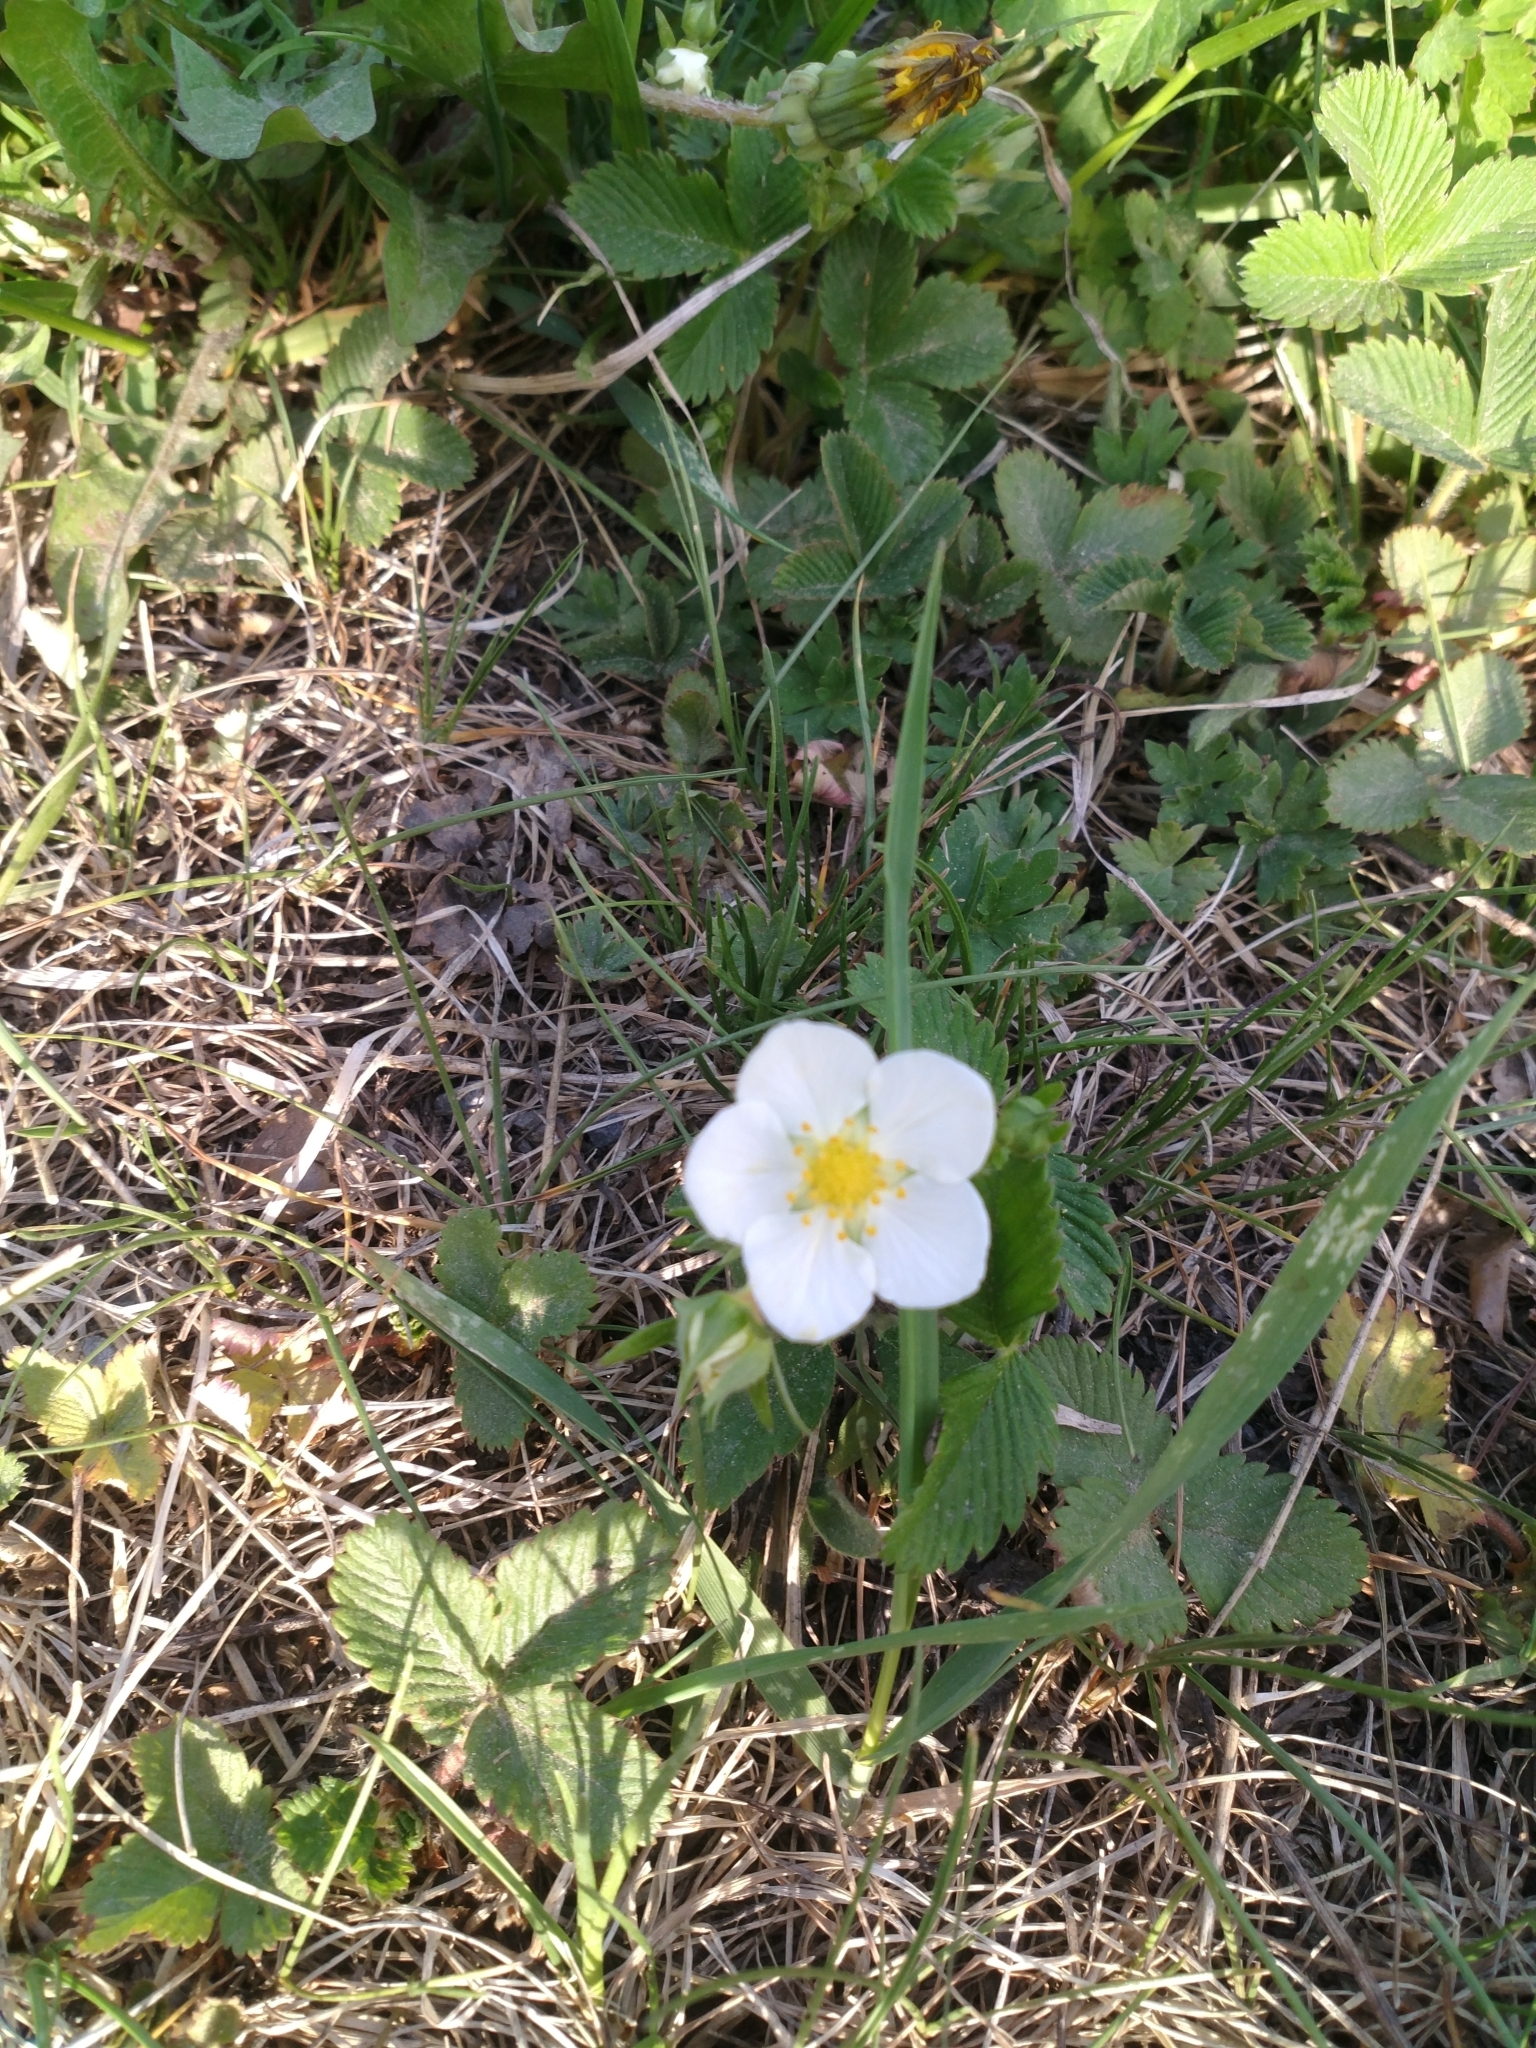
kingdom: Plantae
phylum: Tracheophyta
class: Magnoliopsida
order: Rosales
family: Rosaceae
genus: Fragaria
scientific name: Fragaria viridis
